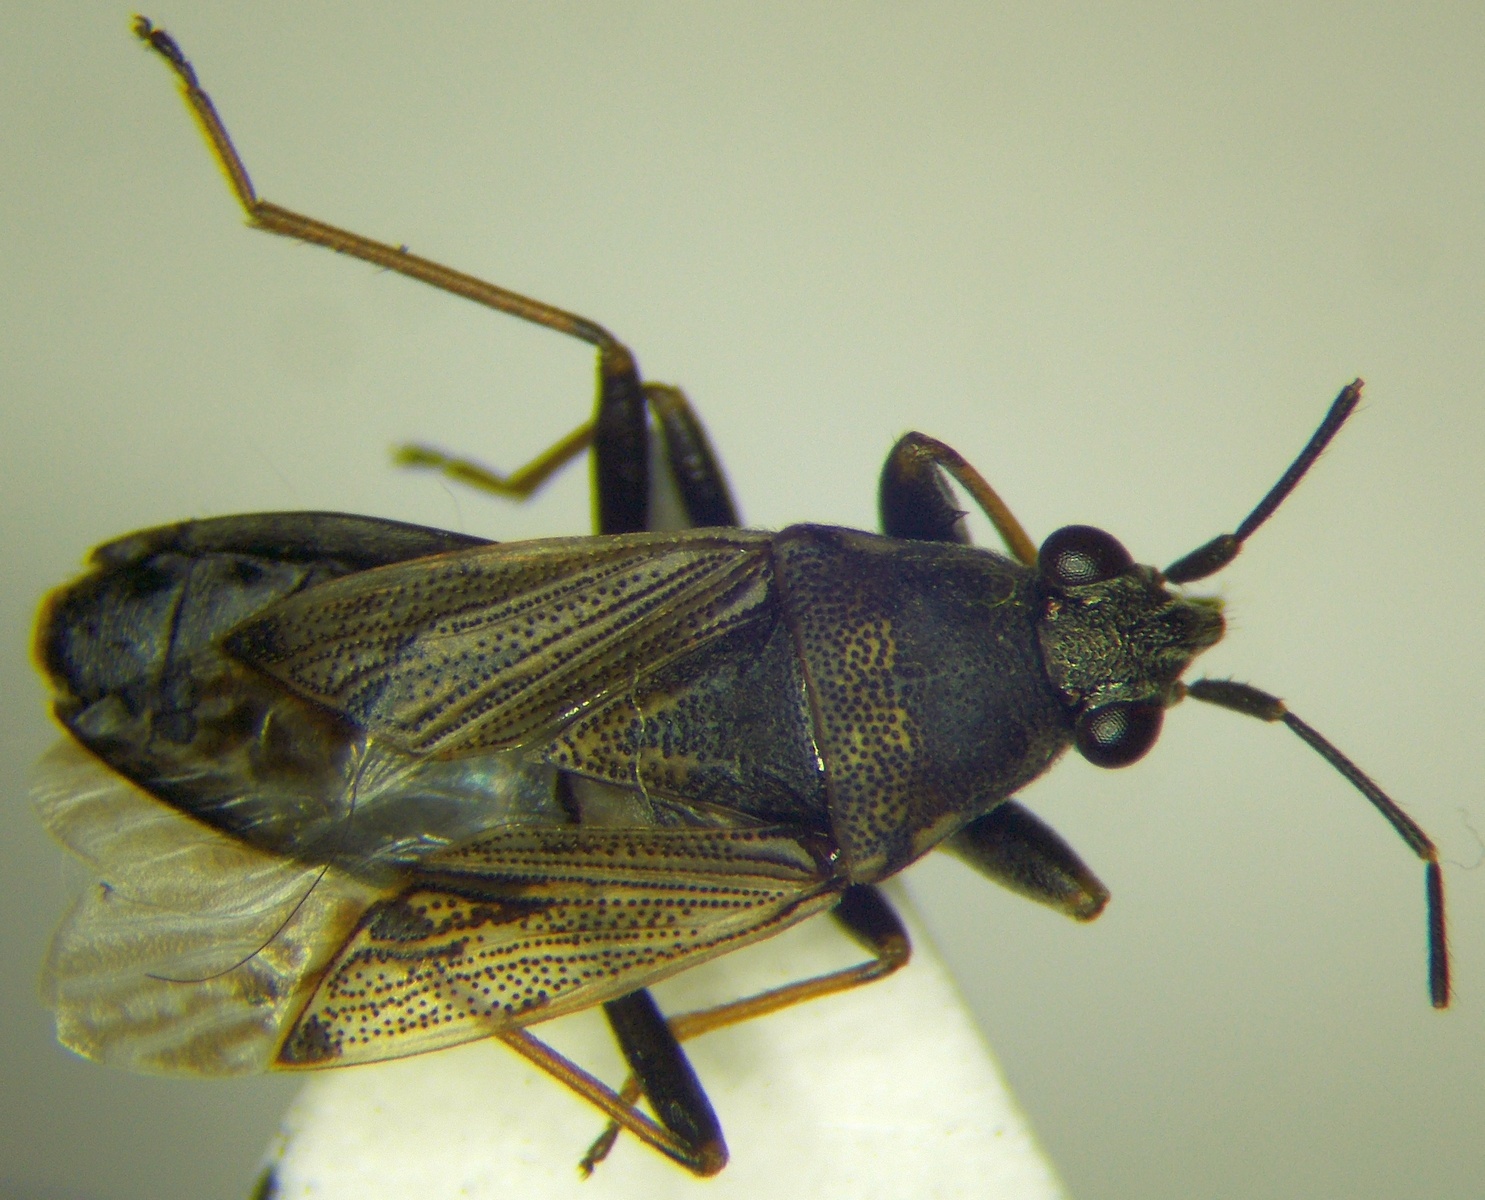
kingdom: Animalia
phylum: Arthropoda
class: Insecta
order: Hemiptera
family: Rhyparochromidae
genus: Peritrechus
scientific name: Peritrechus gracilicornis
